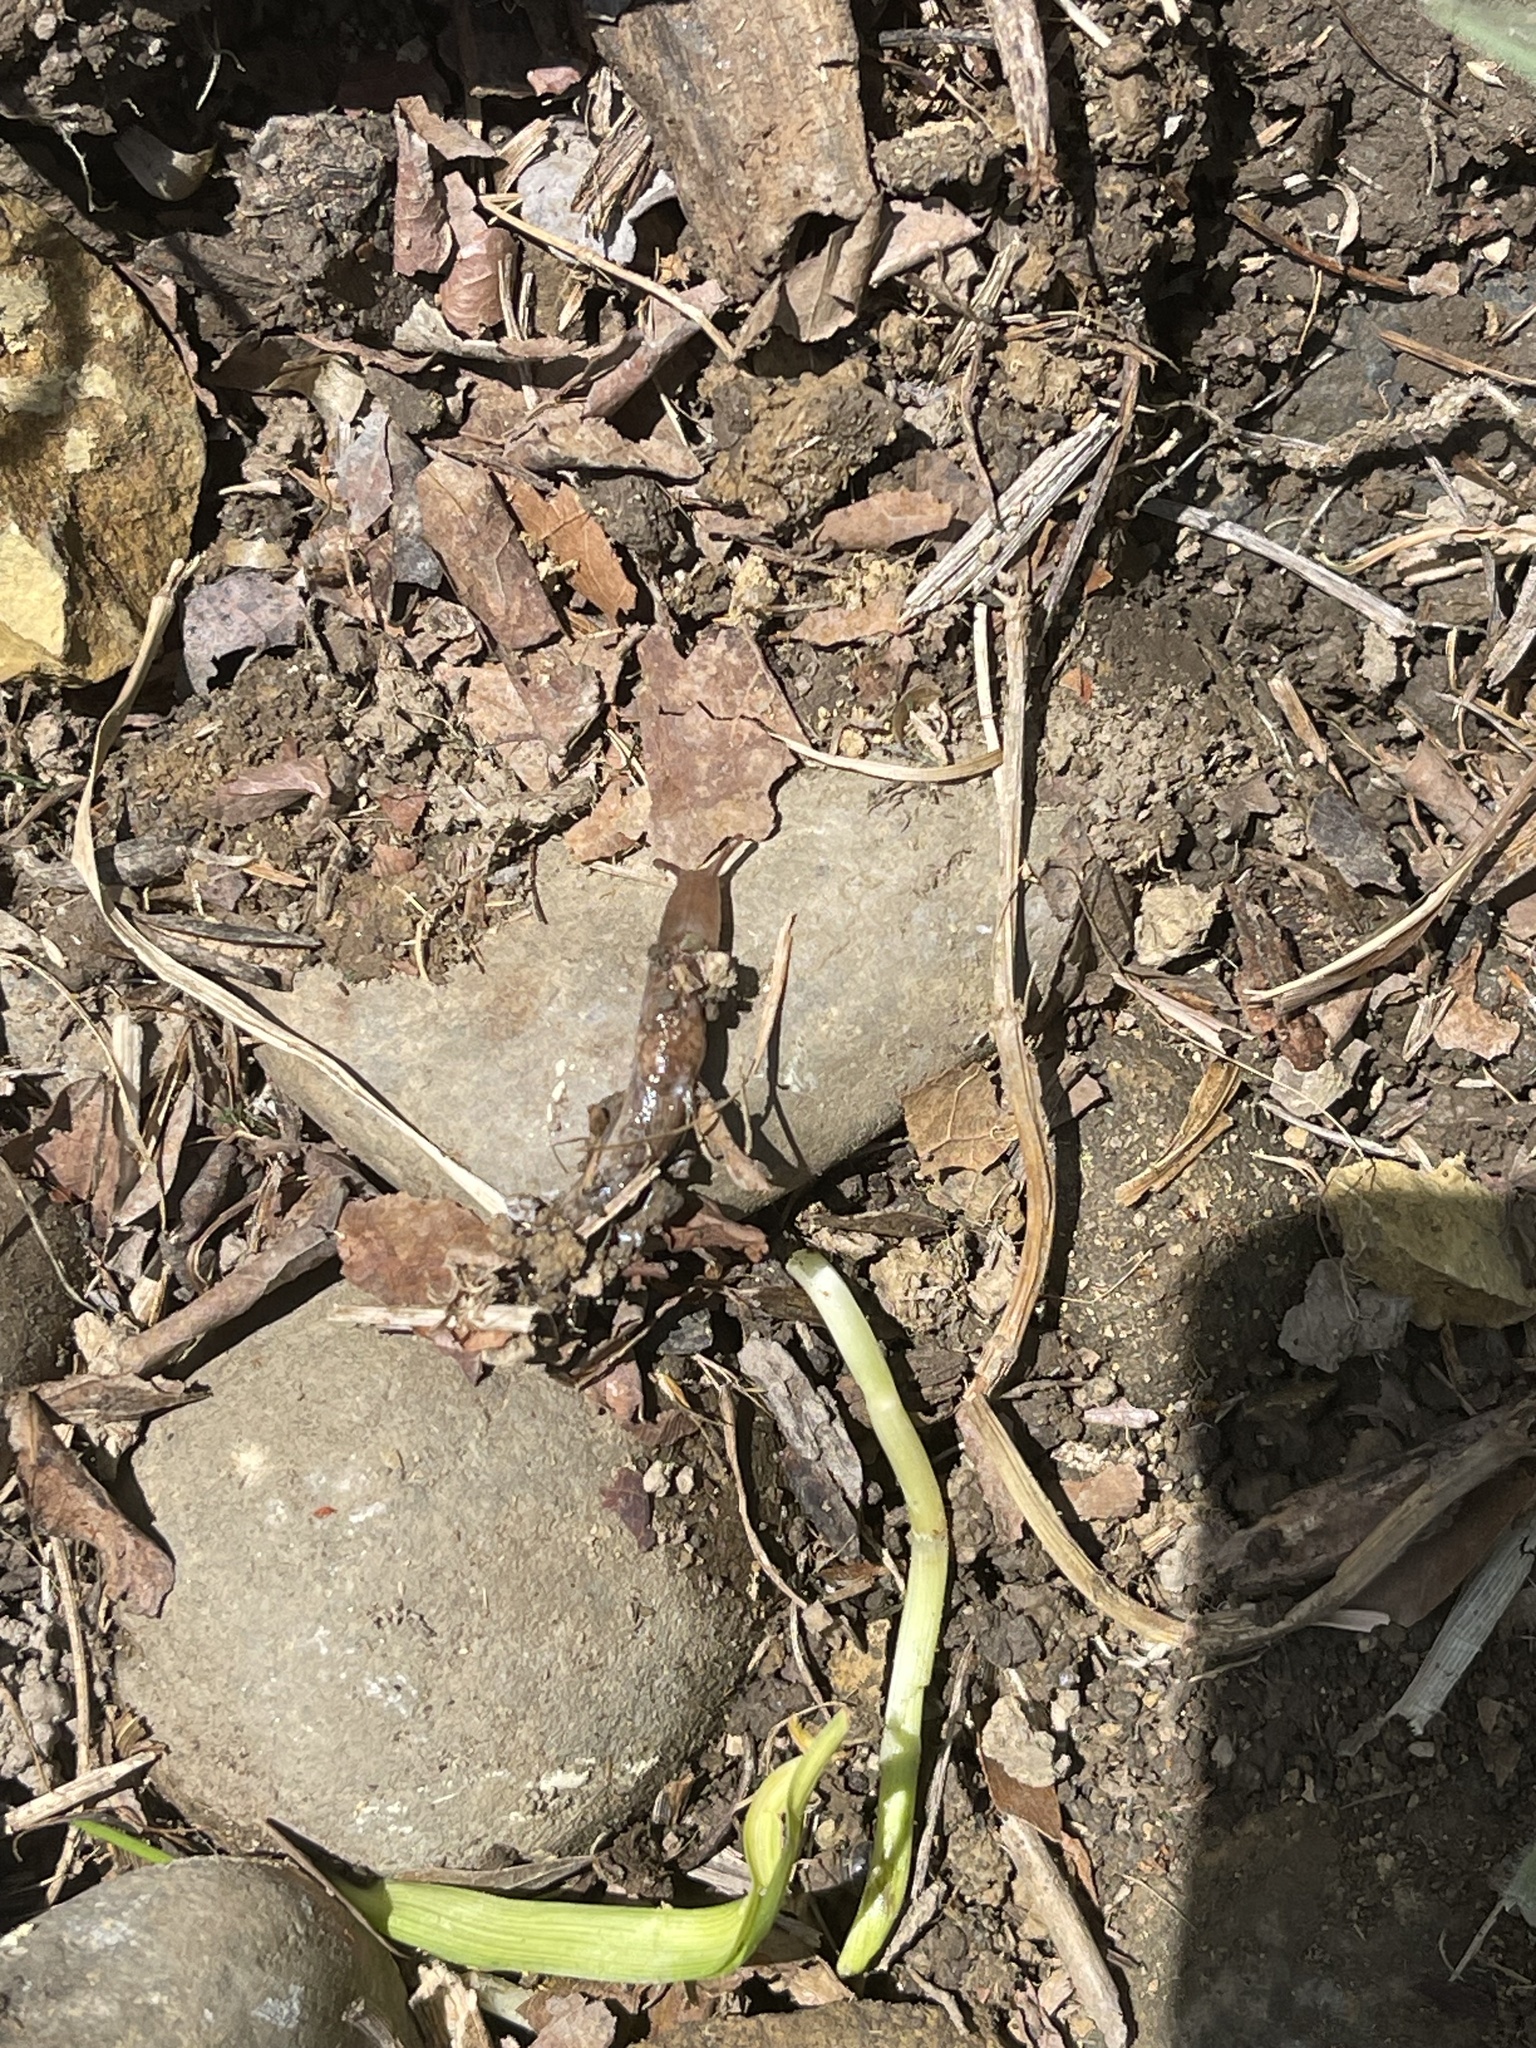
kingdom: Animalia
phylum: Mollusca
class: Gastropoda
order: Stylommatophora
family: Agriolimacidae
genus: Deroceras
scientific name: Deroceras reticulatum
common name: Gray field slug
